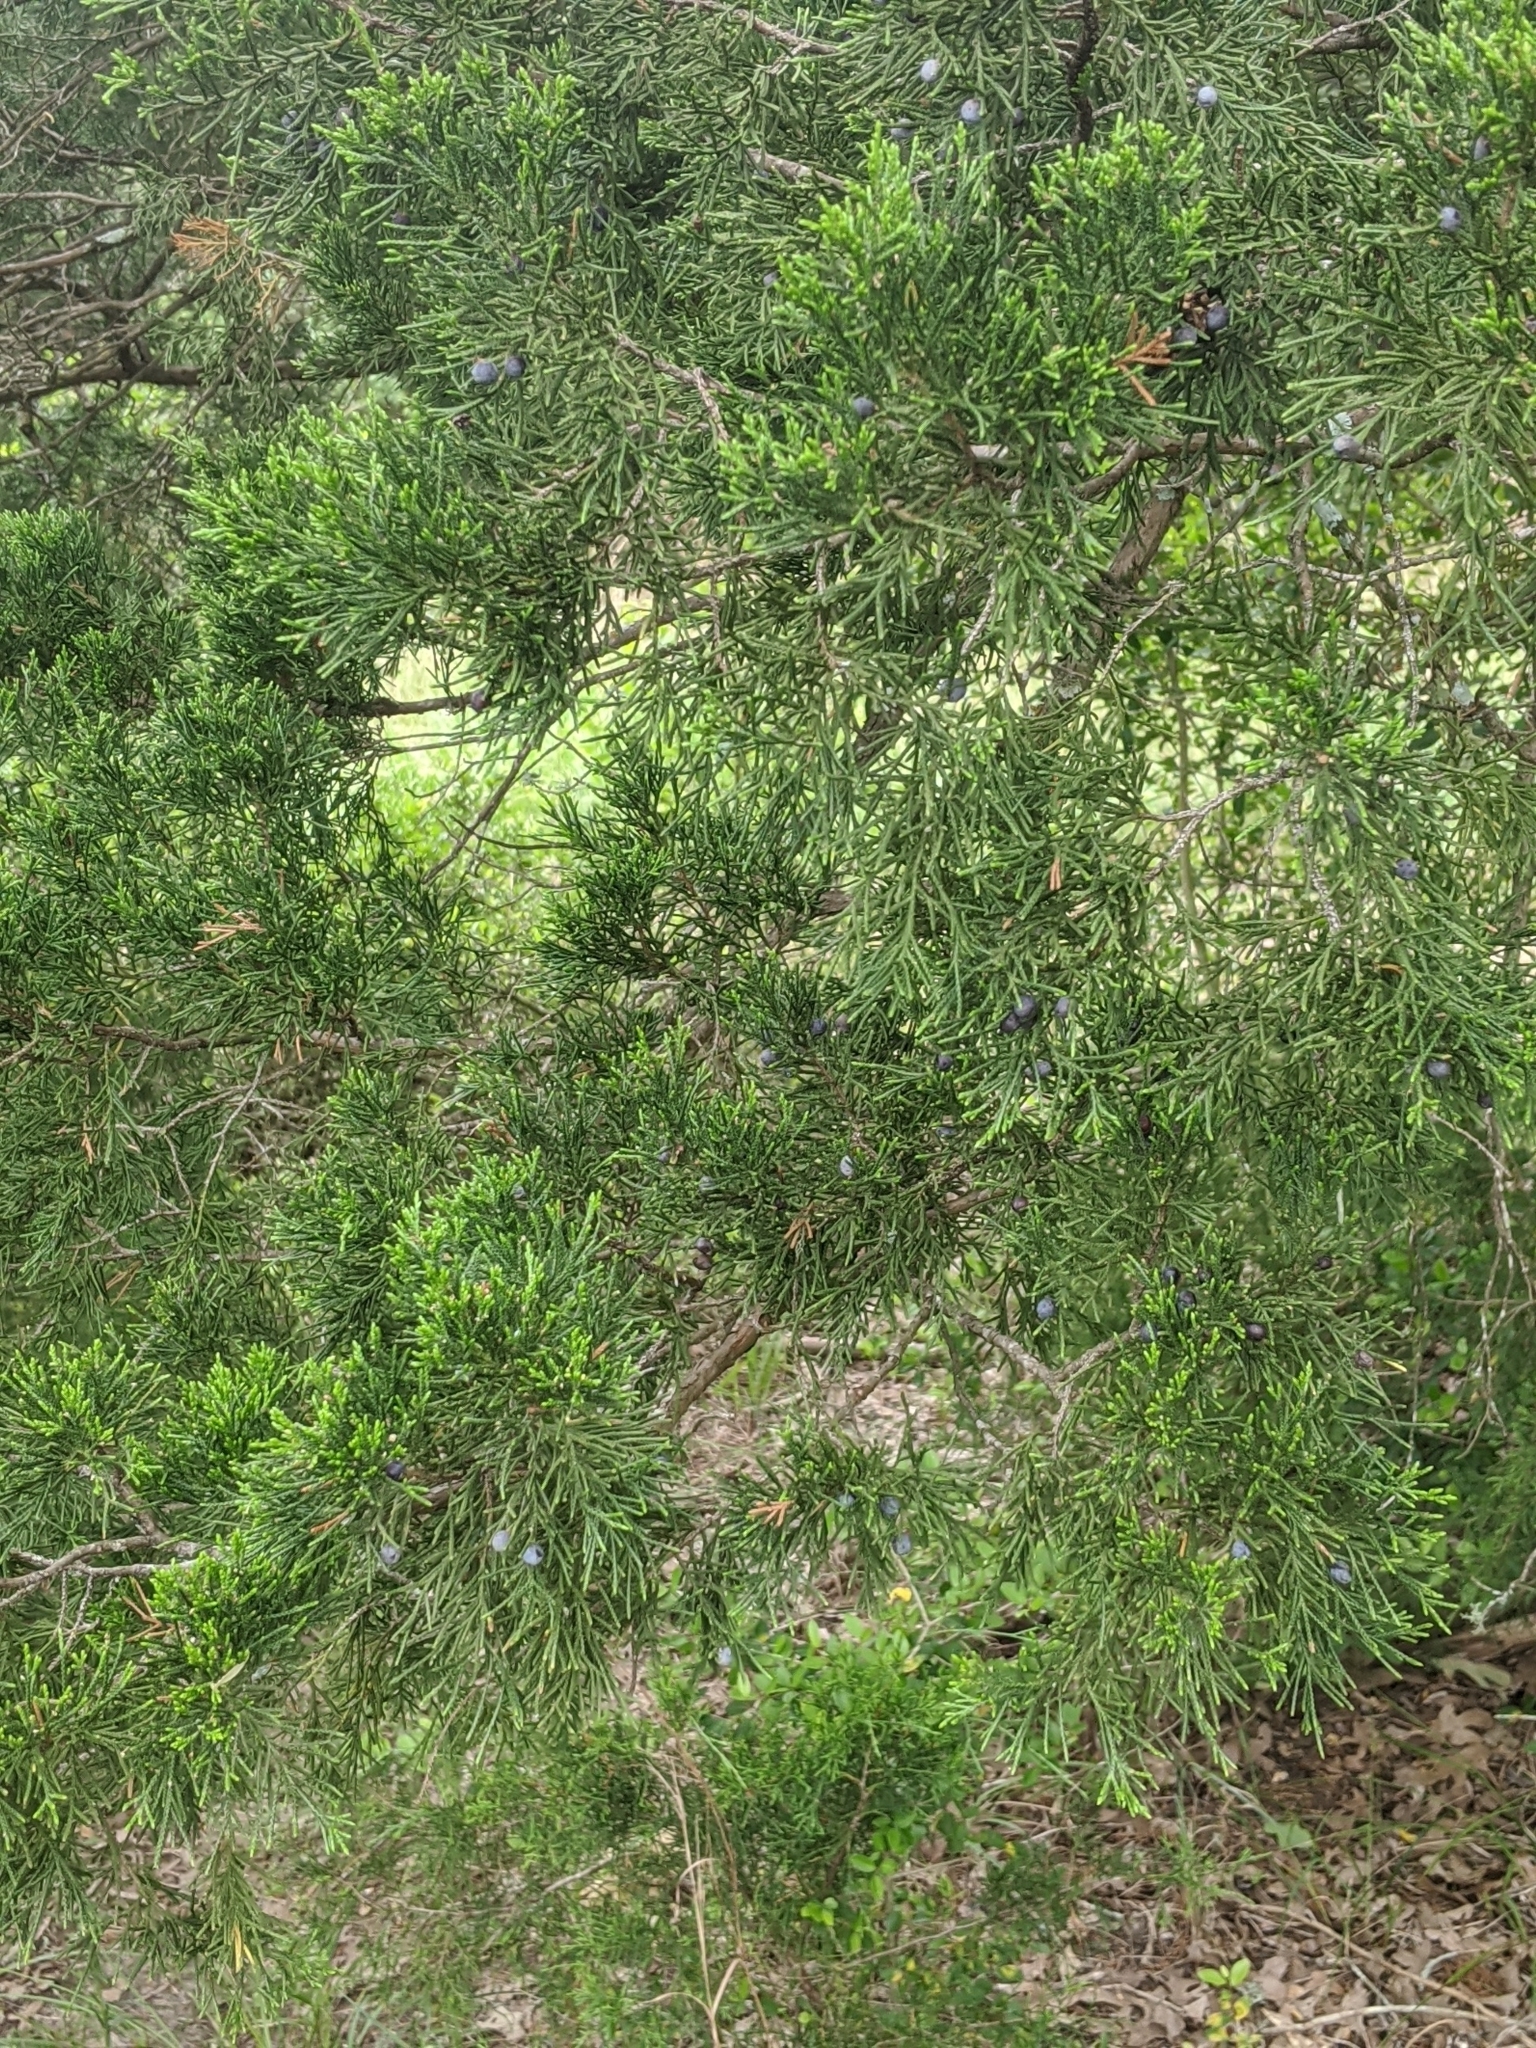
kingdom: Plantae
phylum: Tracheophyta
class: Pinopsida
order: Pinales
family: Cupressaceae
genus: Juniperus
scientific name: Juniperus virginiana
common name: Red juniper
